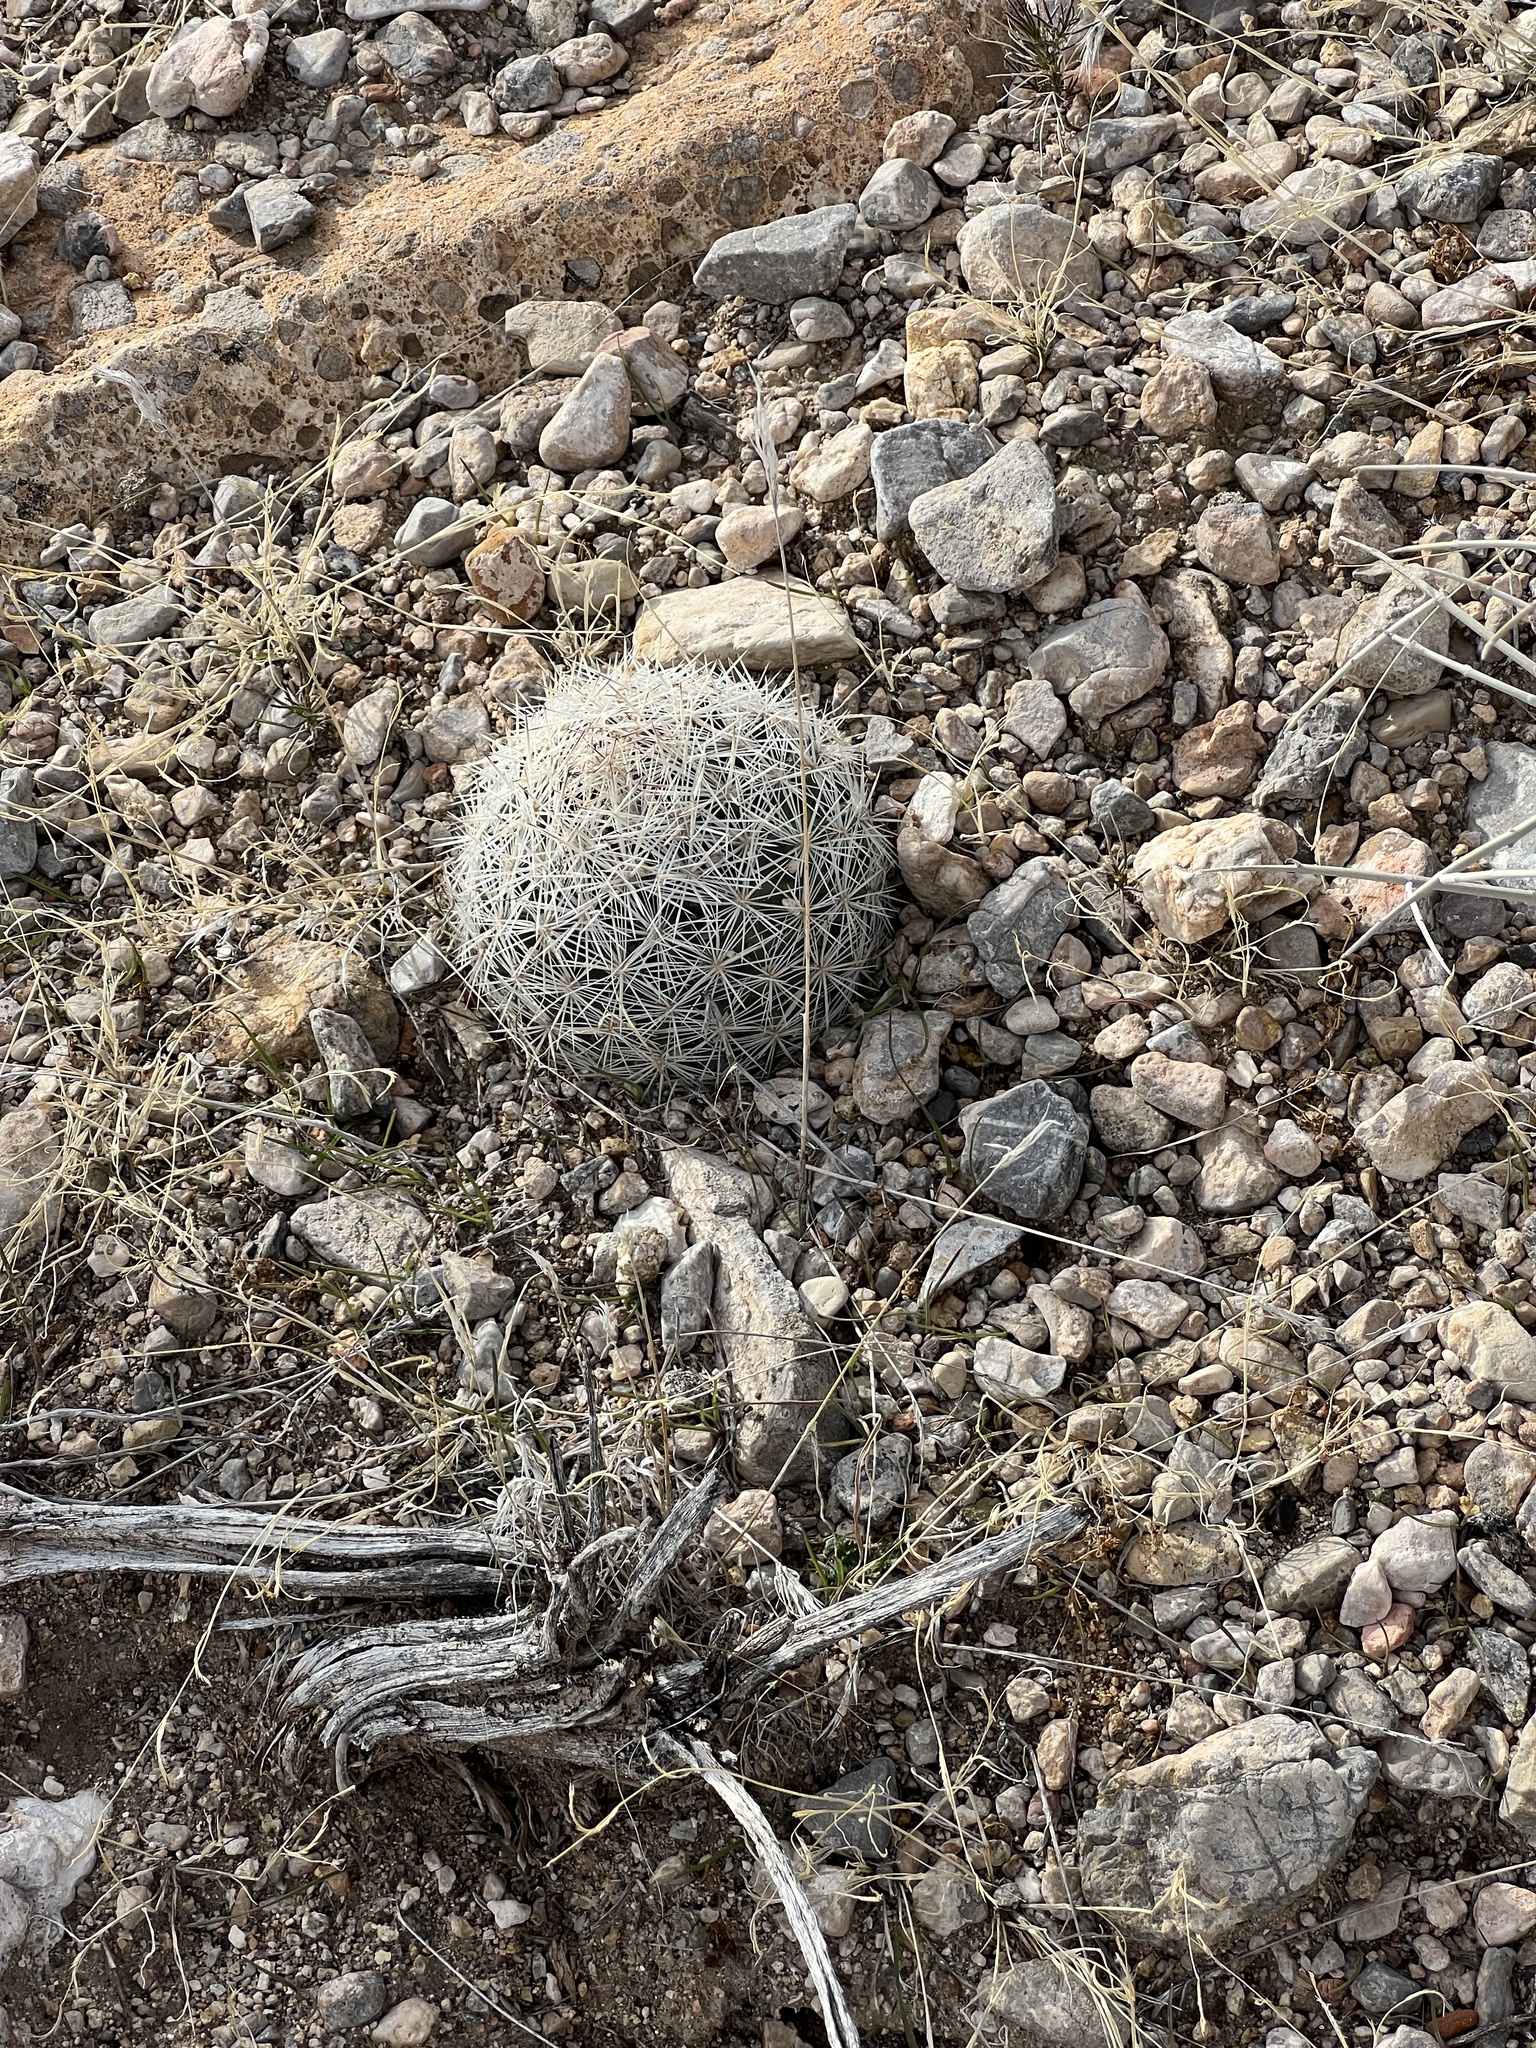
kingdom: Plantae
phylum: Tracheophyta
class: Magnoliopsida
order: Caryophyllales
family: Cactaceae
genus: Pelecyphora
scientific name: Pelecyphora dasyacantha
